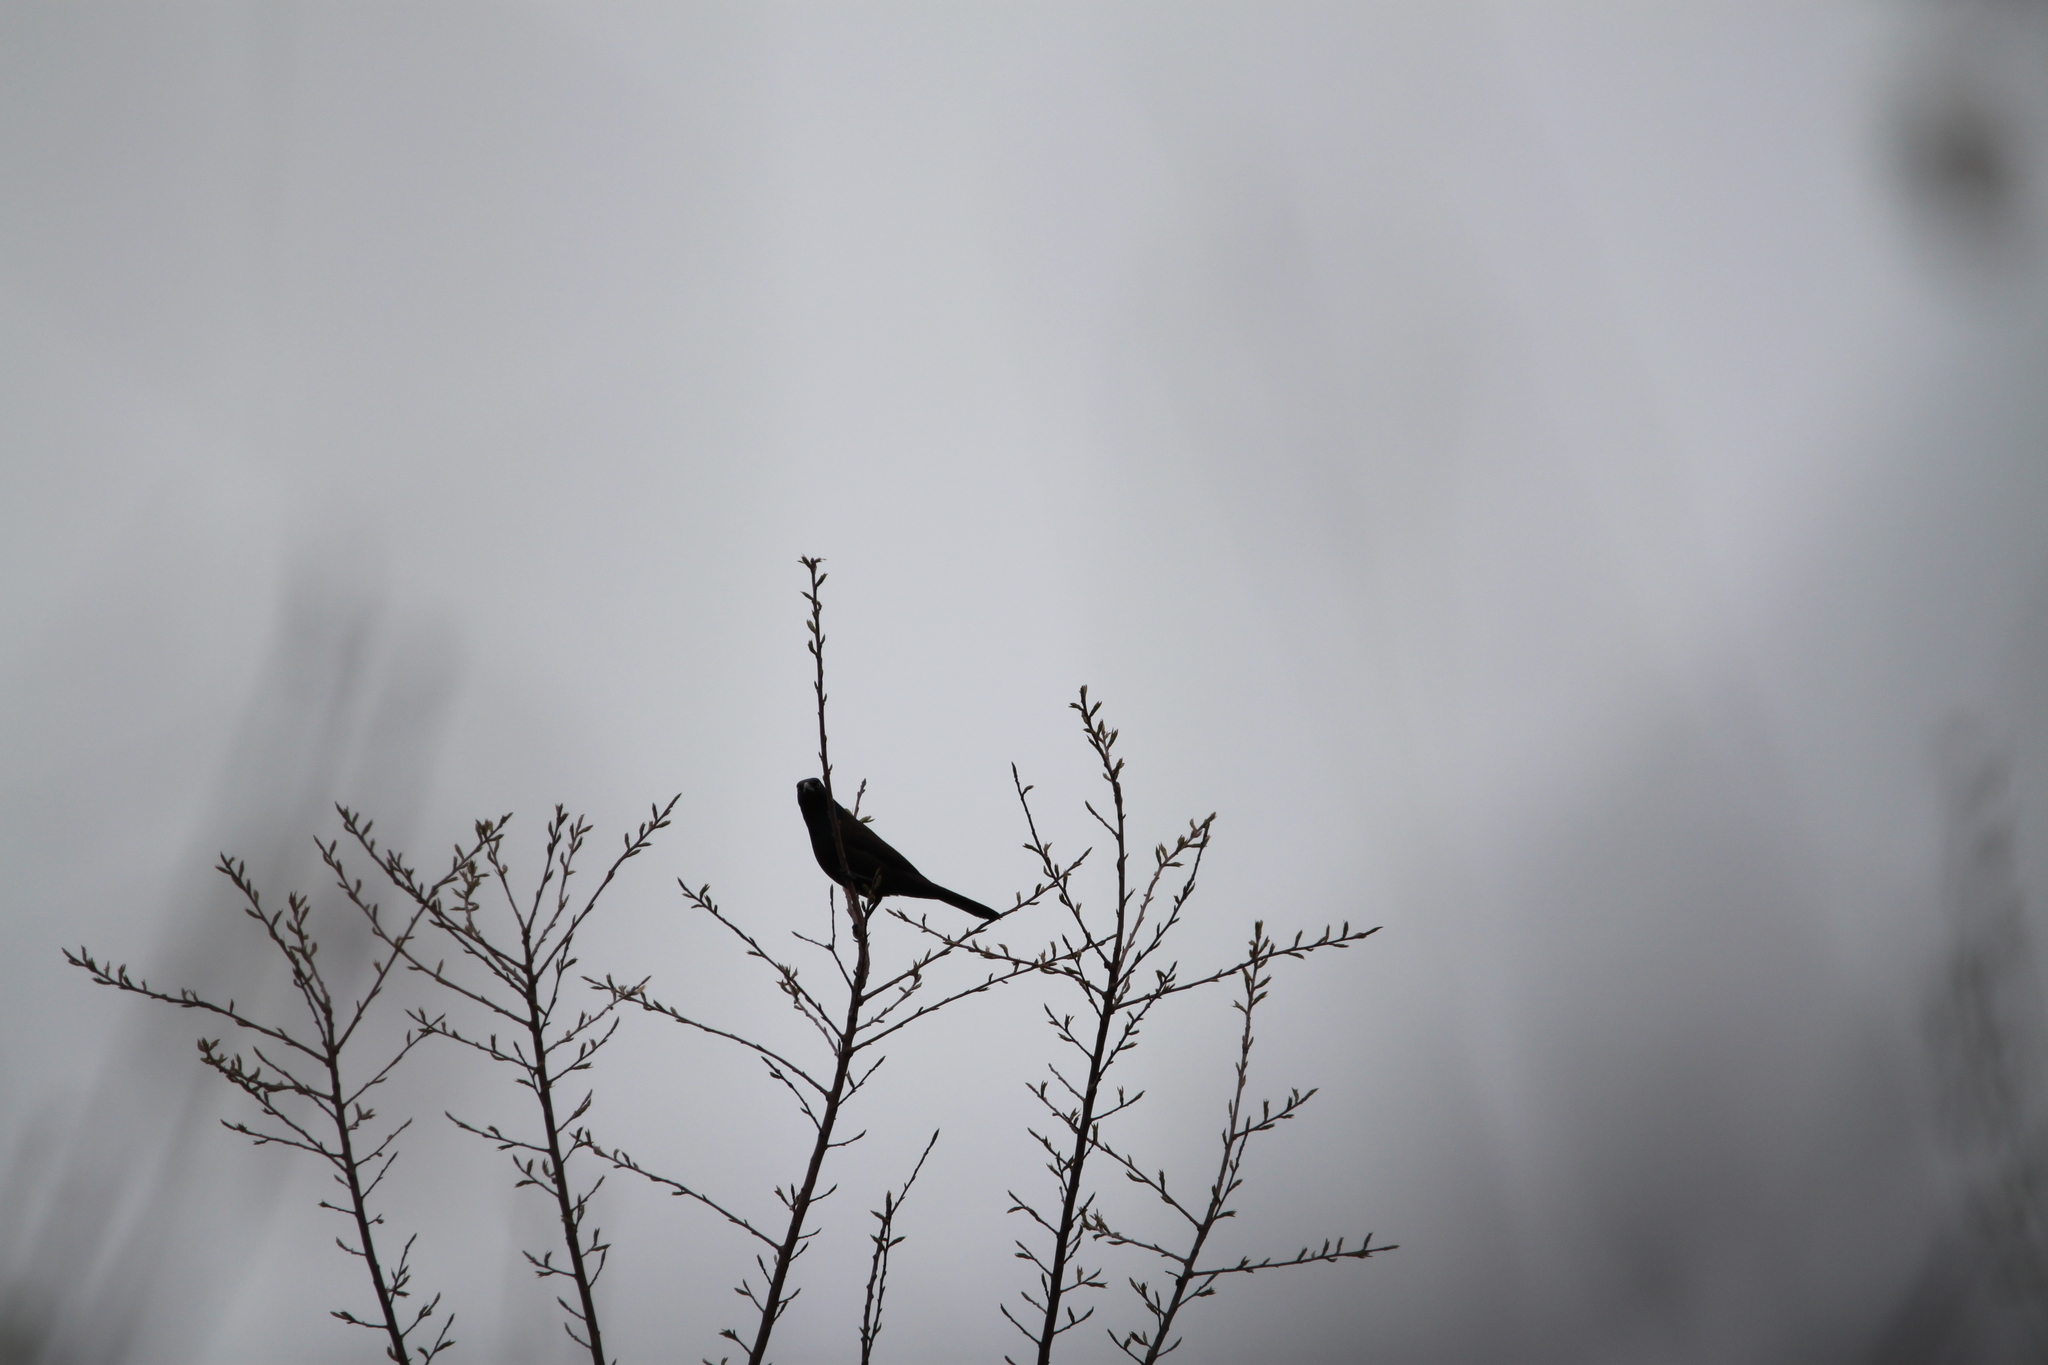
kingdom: Animalia
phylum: Chordata
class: Aves
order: Passeriformes
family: Icteridae
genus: Quiscalus
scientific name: Quiscalus quiscula
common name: Common grackle
